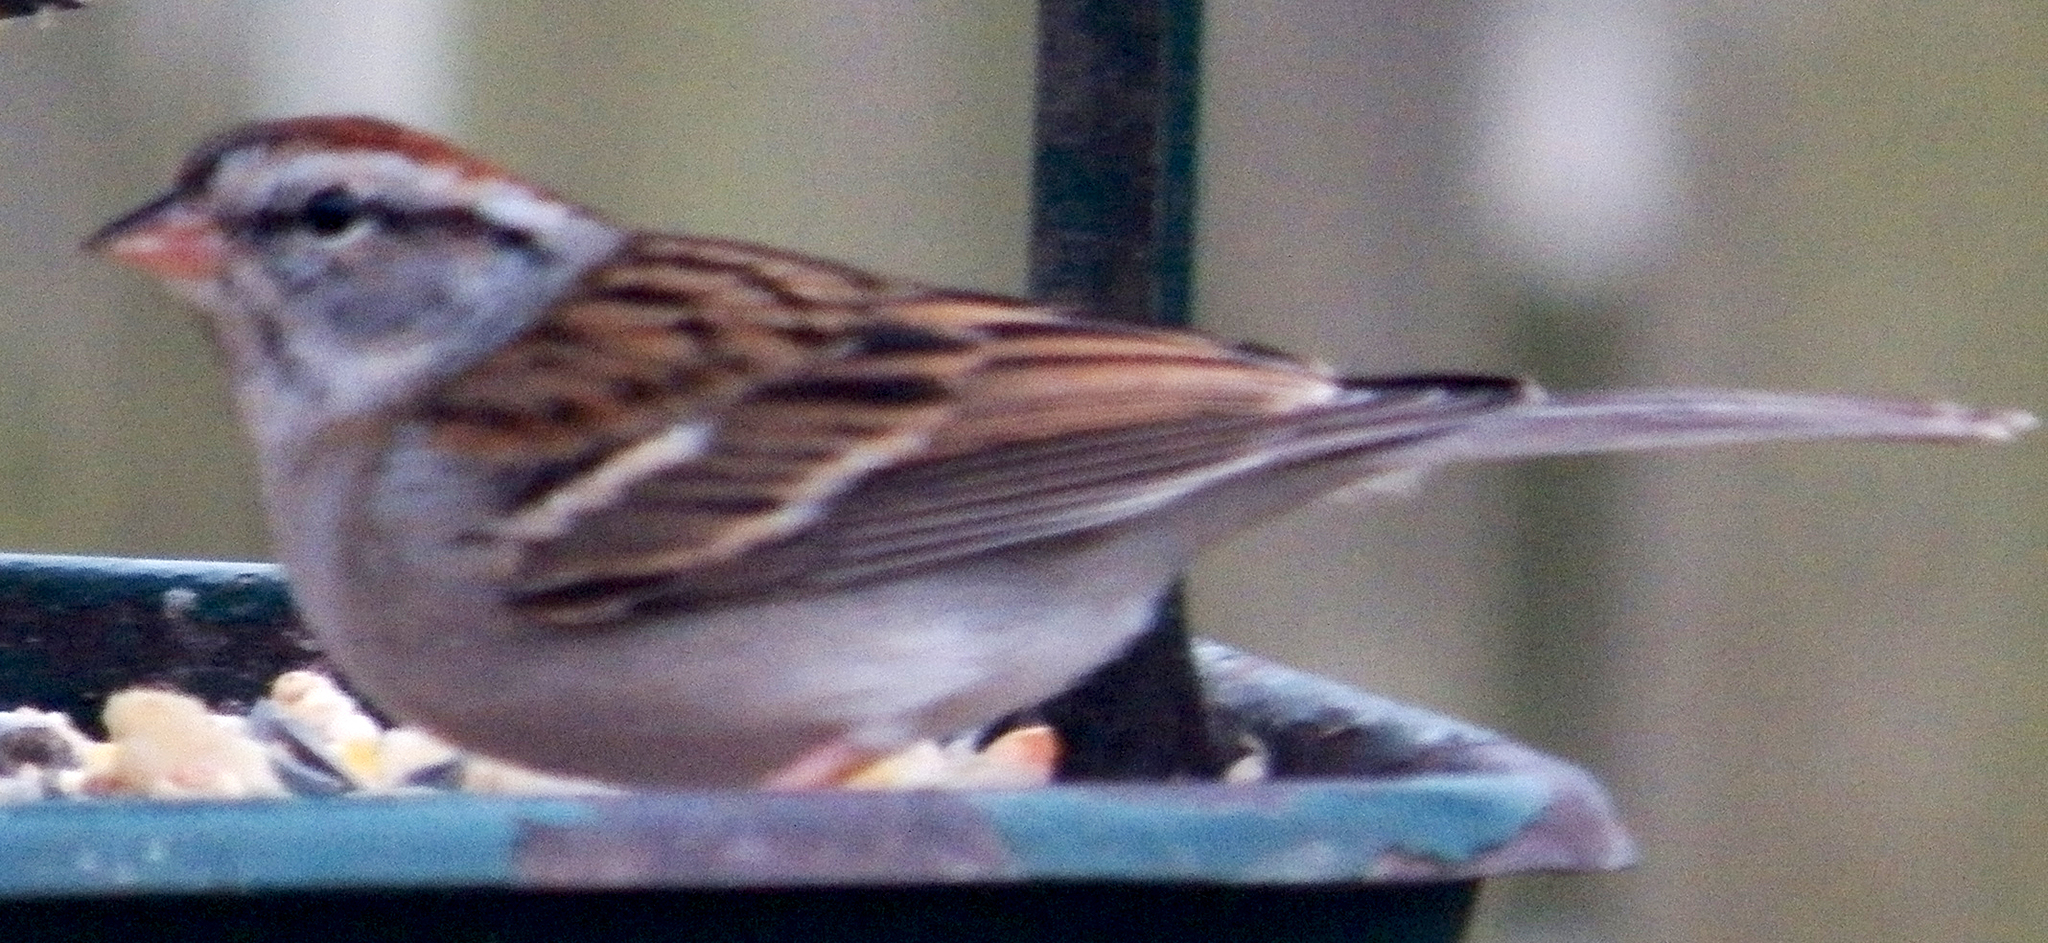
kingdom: Animalia
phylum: Chordata
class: Aves
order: Passeriformes
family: Passerellidae
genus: Spizella
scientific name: Spizella passerina
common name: Chipping sparrow
